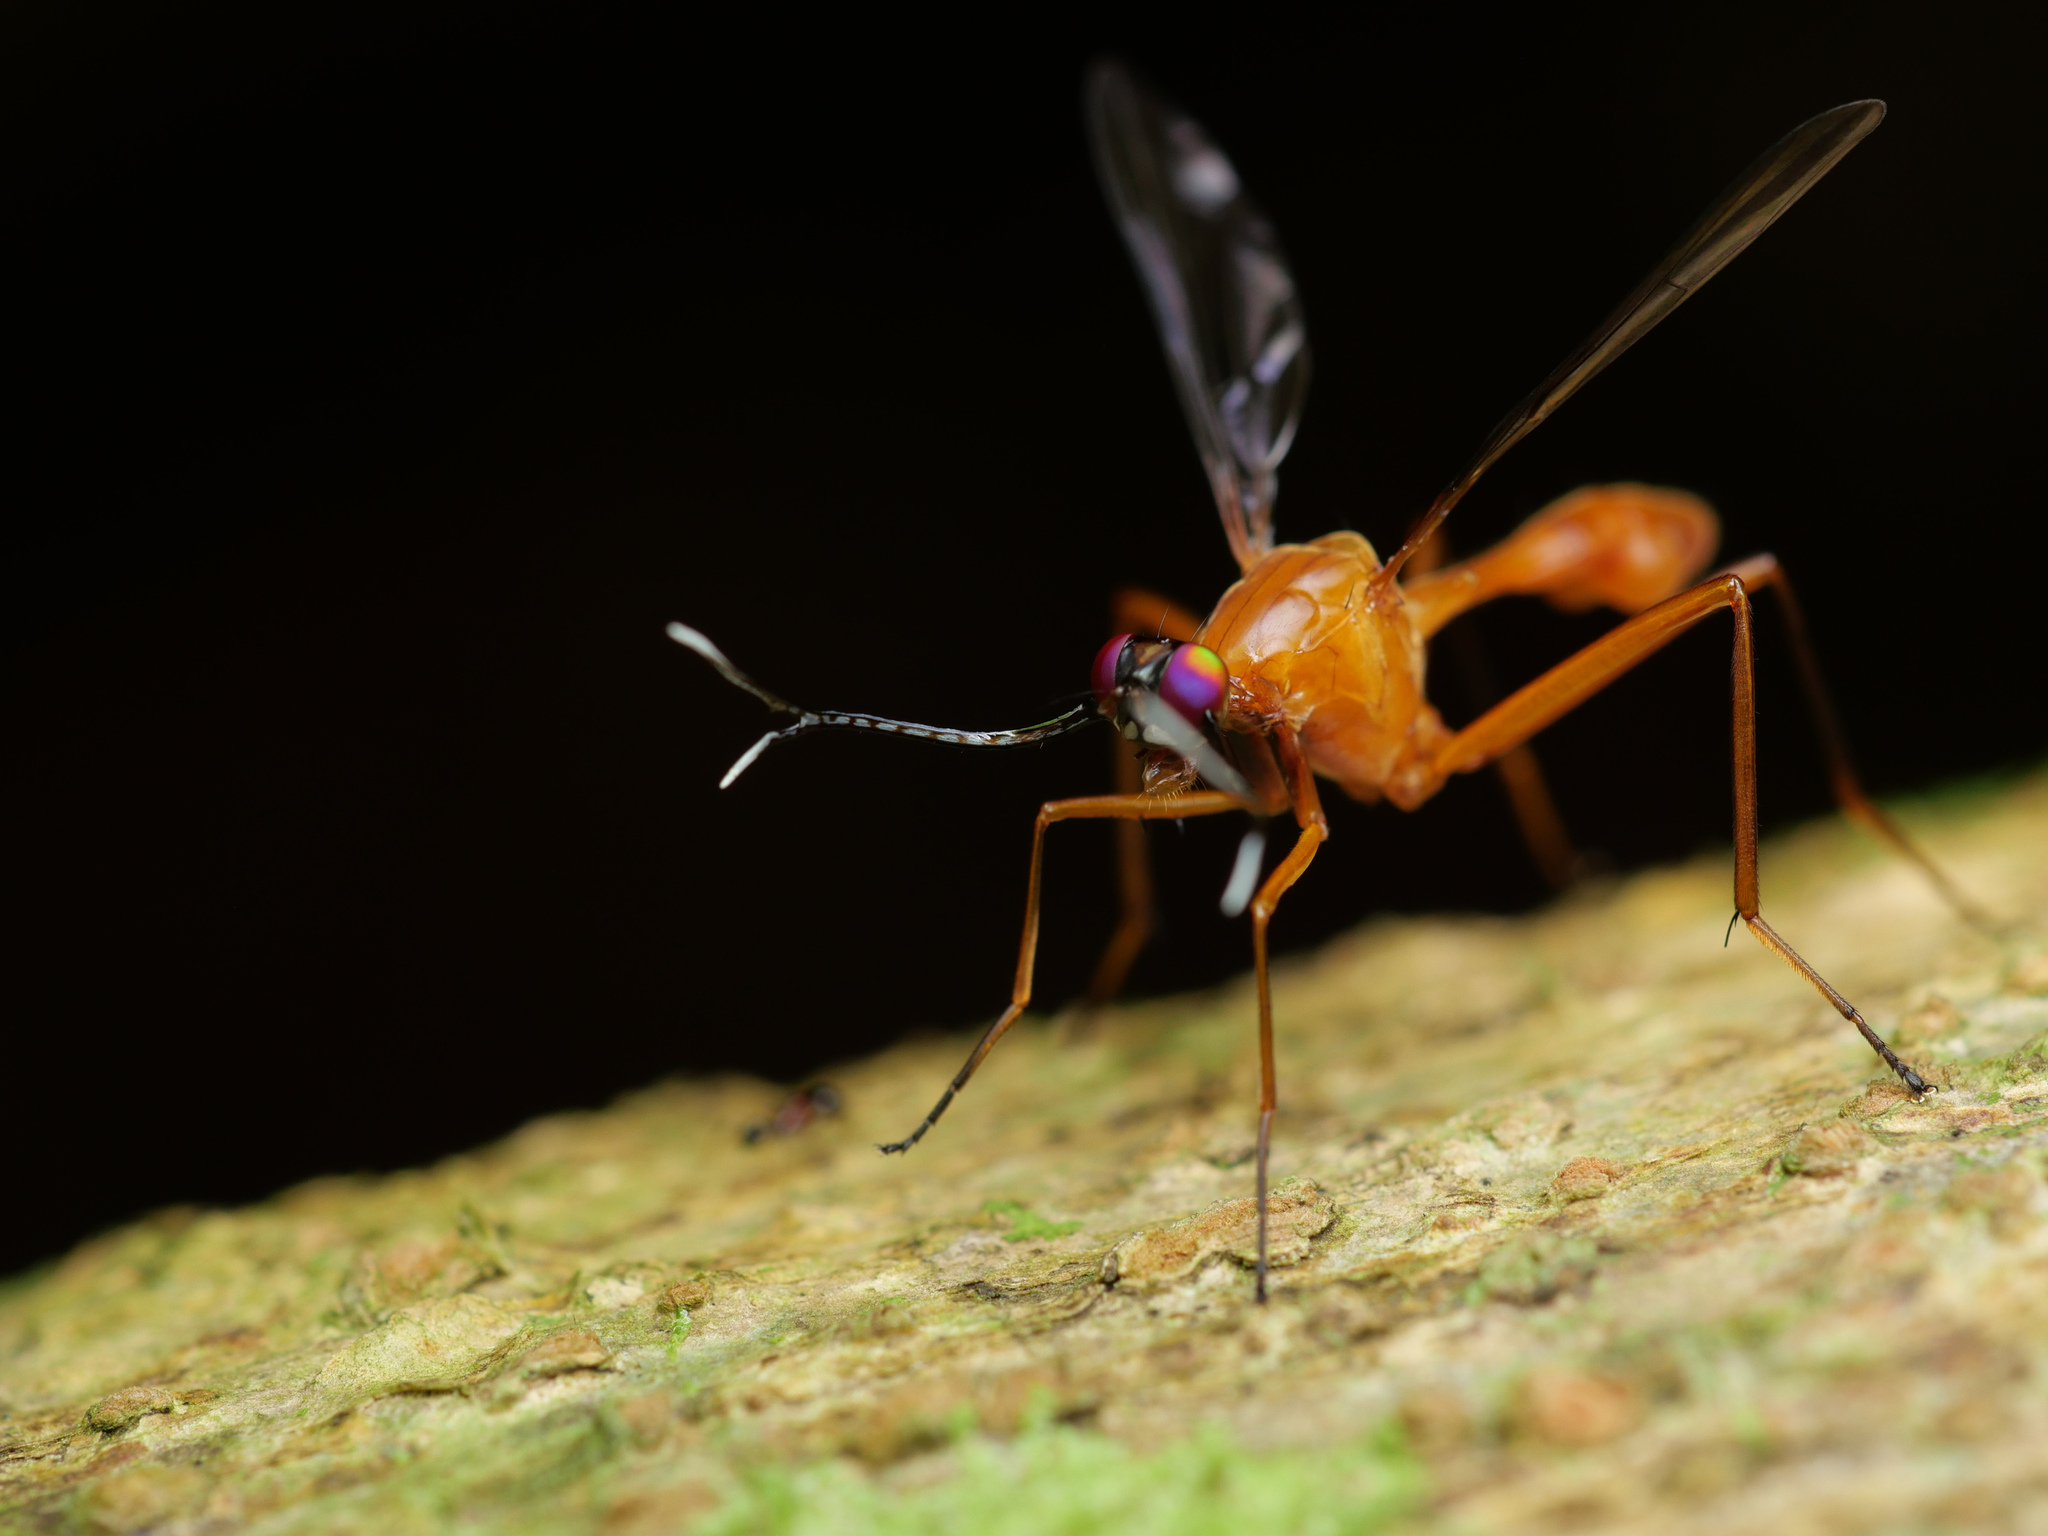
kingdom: Animalia
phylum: Arthropoda
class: Insecta
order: Diptera
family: Tephritidae
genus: Phytalmia
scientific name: Phytalmia cervicornis
